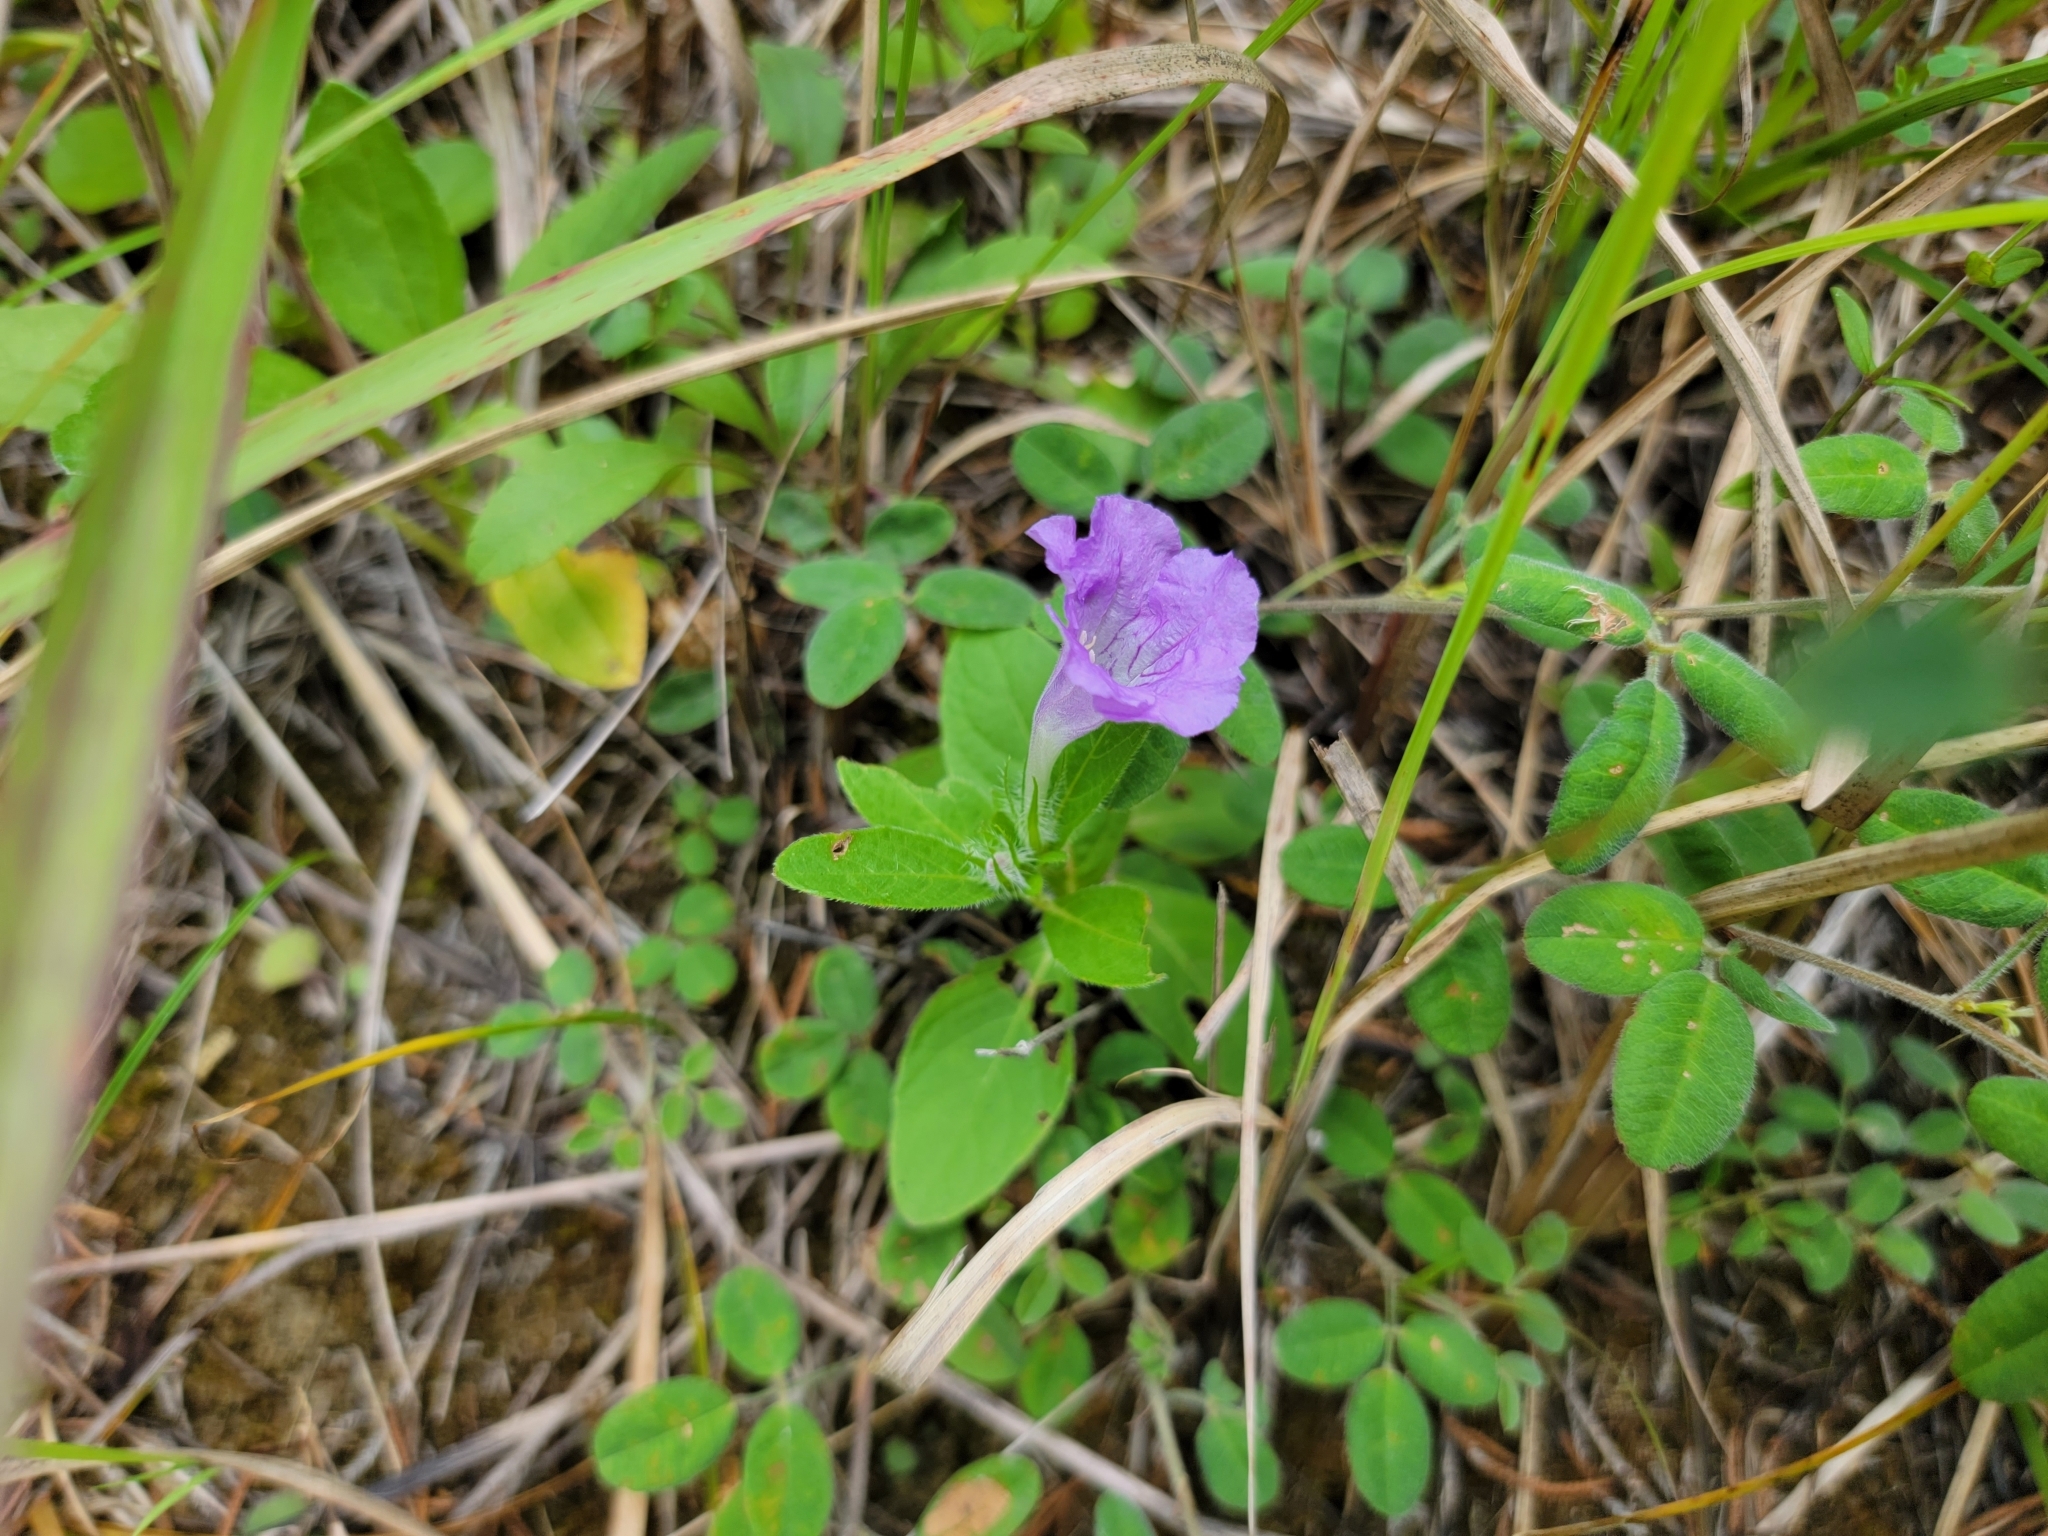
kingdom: Plantae
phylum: Tracheophyta
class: Magnoliopsida
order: Lamiales
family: Acanthaceae
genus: Ruellia
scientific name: Ruellia humilis
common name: Fringe-leaf ruellia
